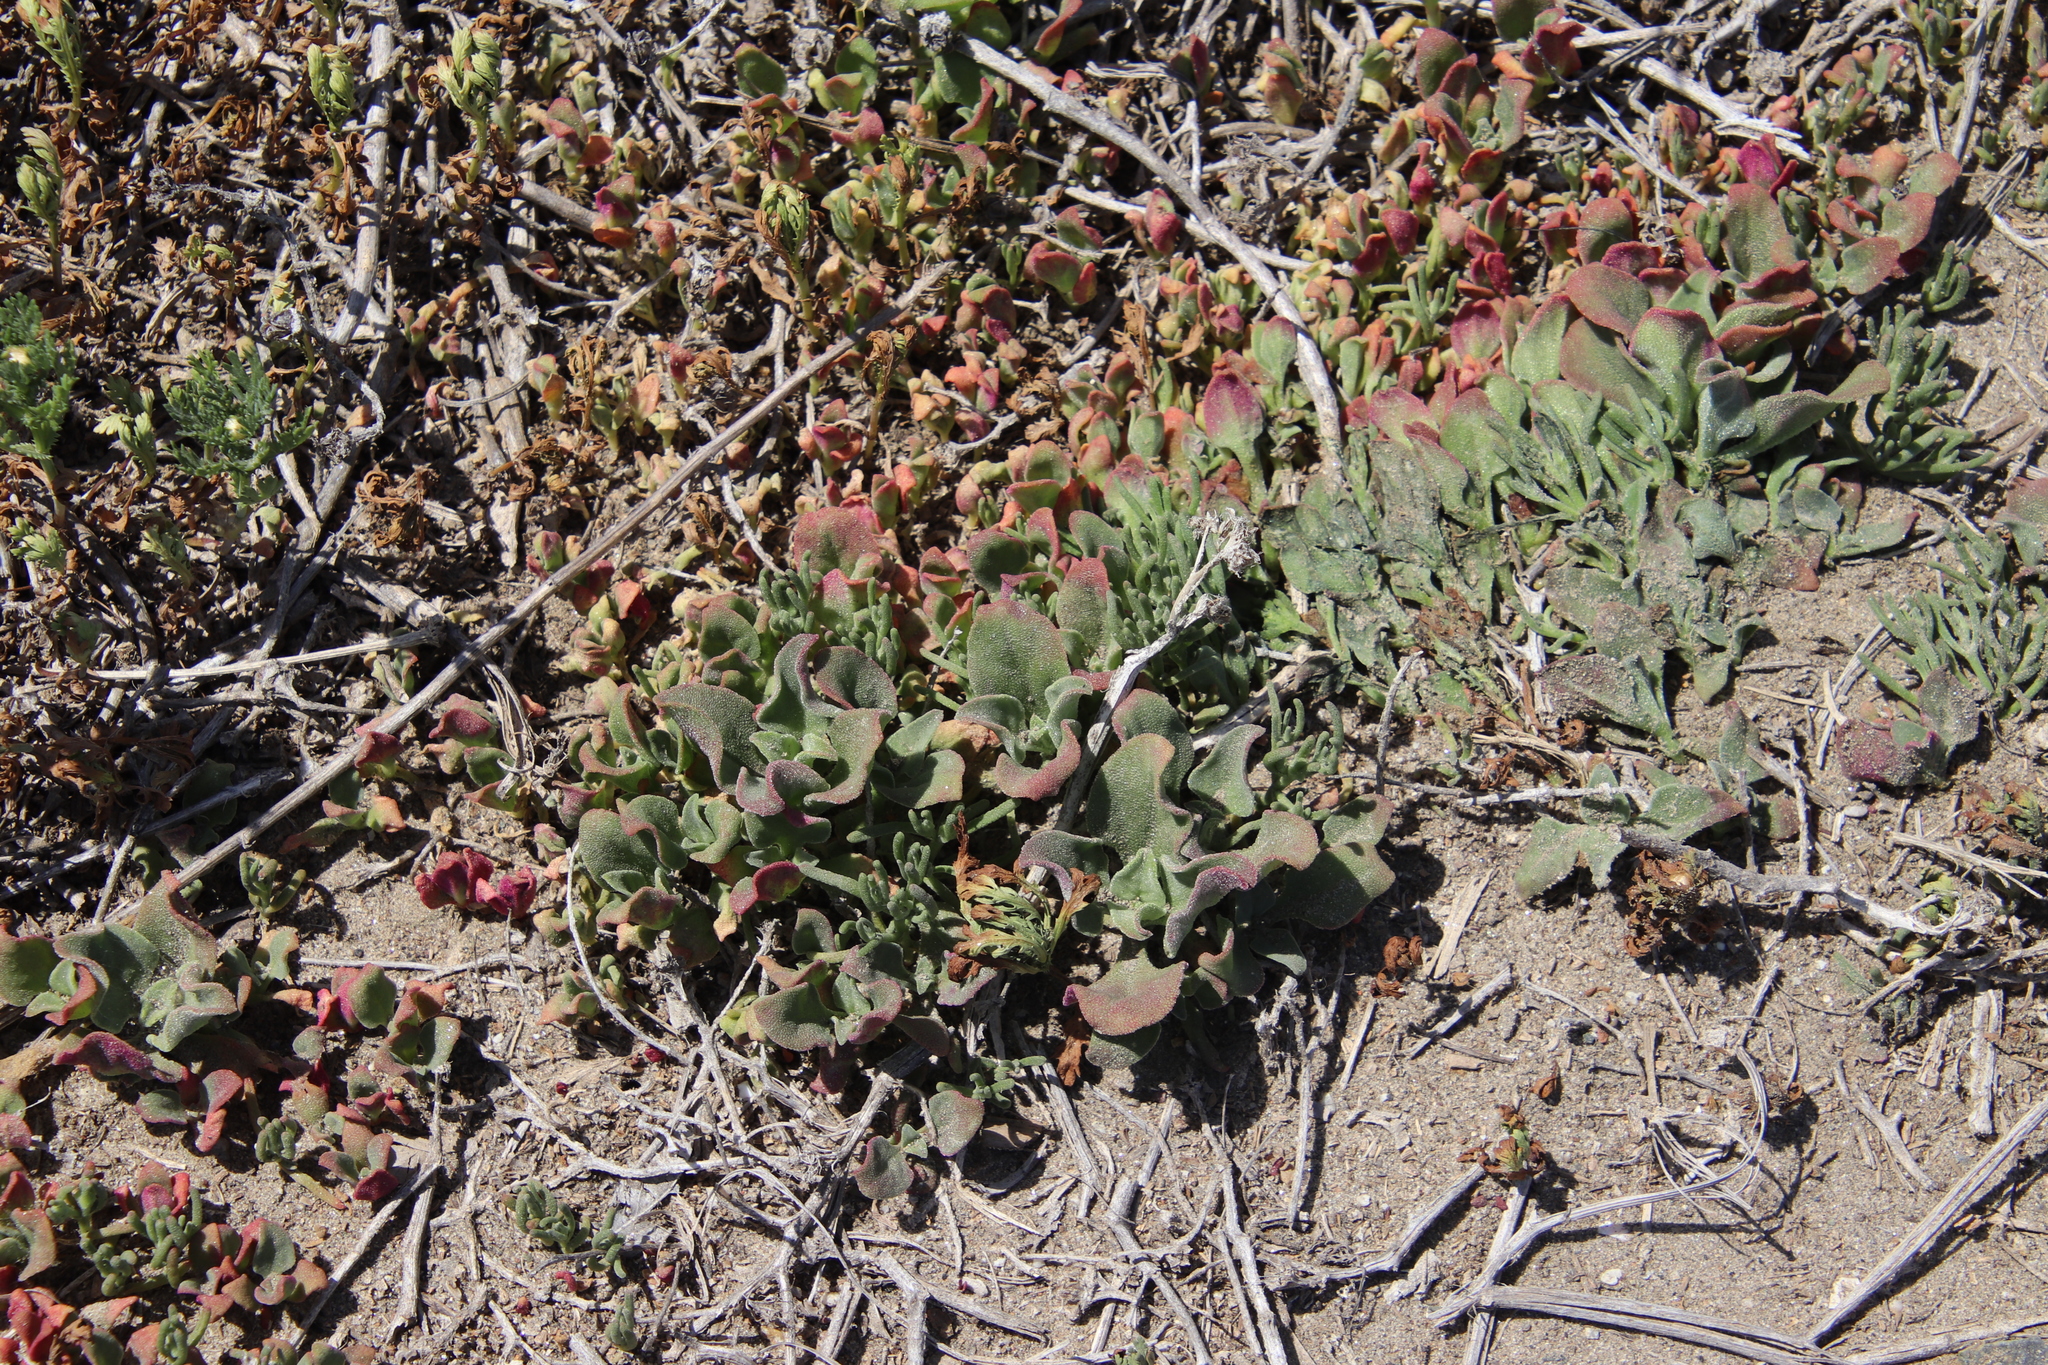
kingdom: Plantae
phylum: Tracheophyta
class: Magnoliopsida
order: Caryophyllales
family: Aizoaceae
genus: Mesembryanthemum
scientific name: Mesembryanthemum crystallinum
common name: Common iceplant
